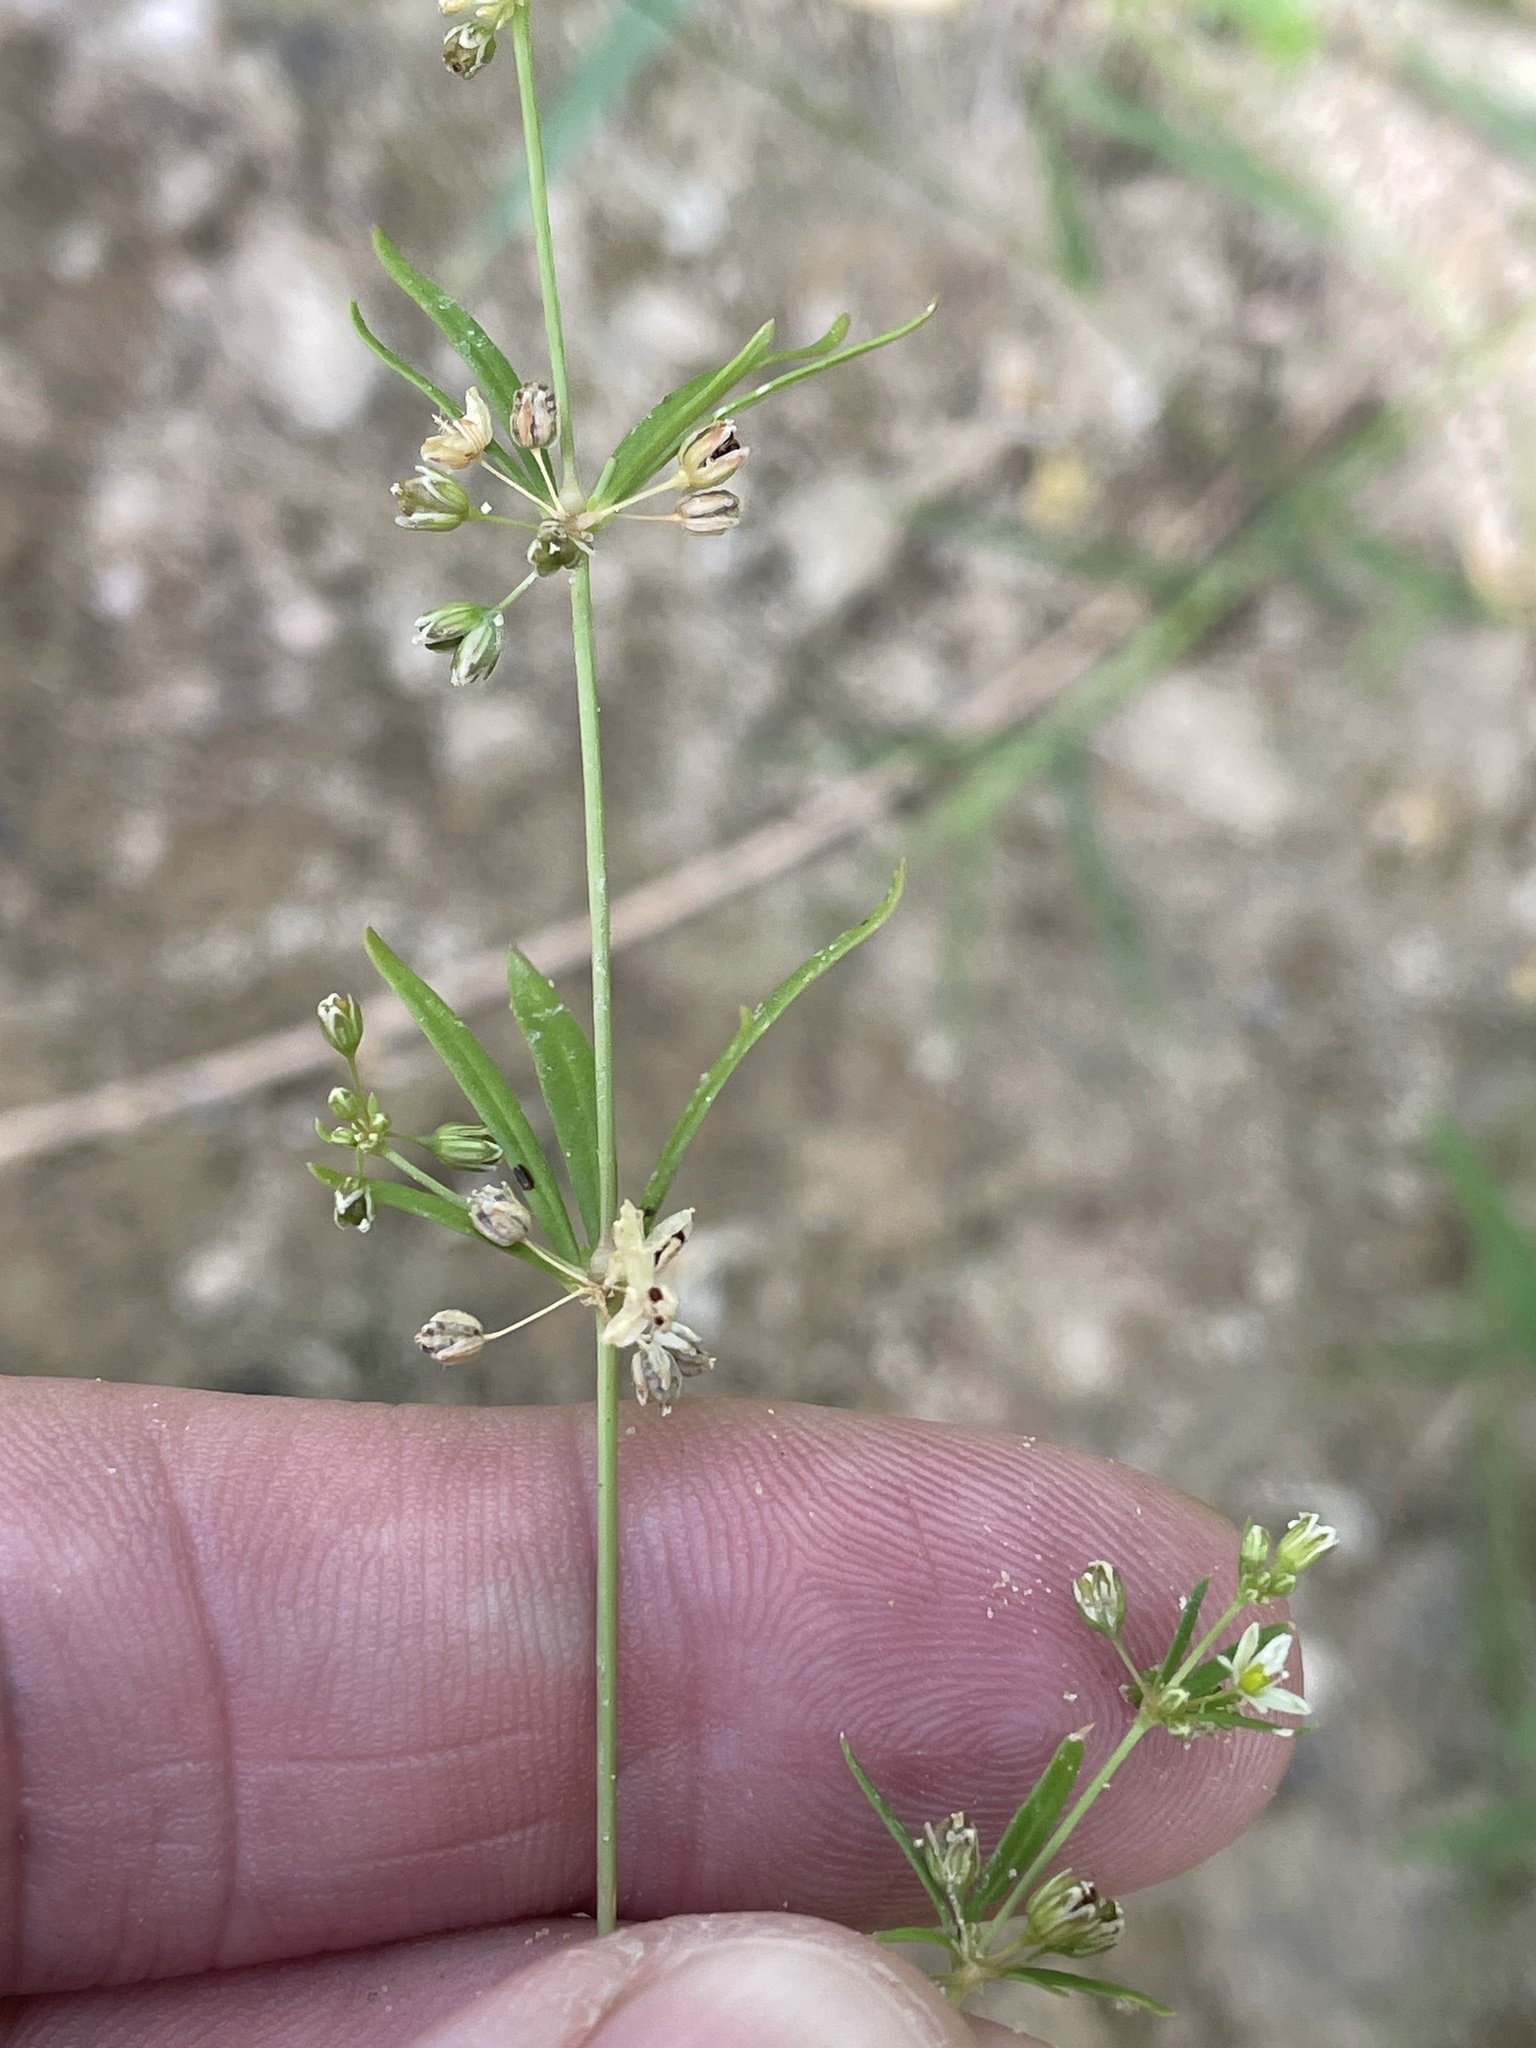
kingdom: Plantae
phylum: Tracheophyta
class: Magnoliopsida
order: Caryophyllales
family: Molluginaceae
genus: Mollugo
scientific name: Mollugo verticillata
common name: Green carpetweed
